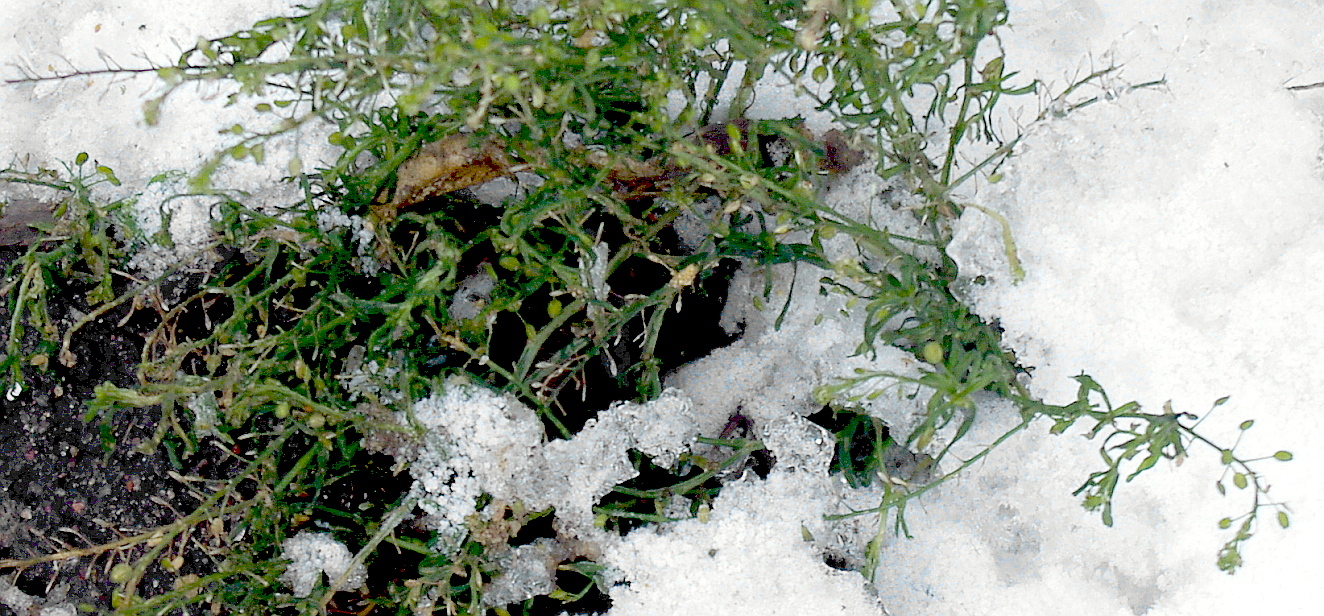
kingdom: Plantae
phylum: Tracheophyta
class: Magnoliopsida
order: Brassicales
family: Brassicaceae
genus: Lepidium
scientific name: Lepidium ruderale
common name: Narrow-leaved pepperwort
